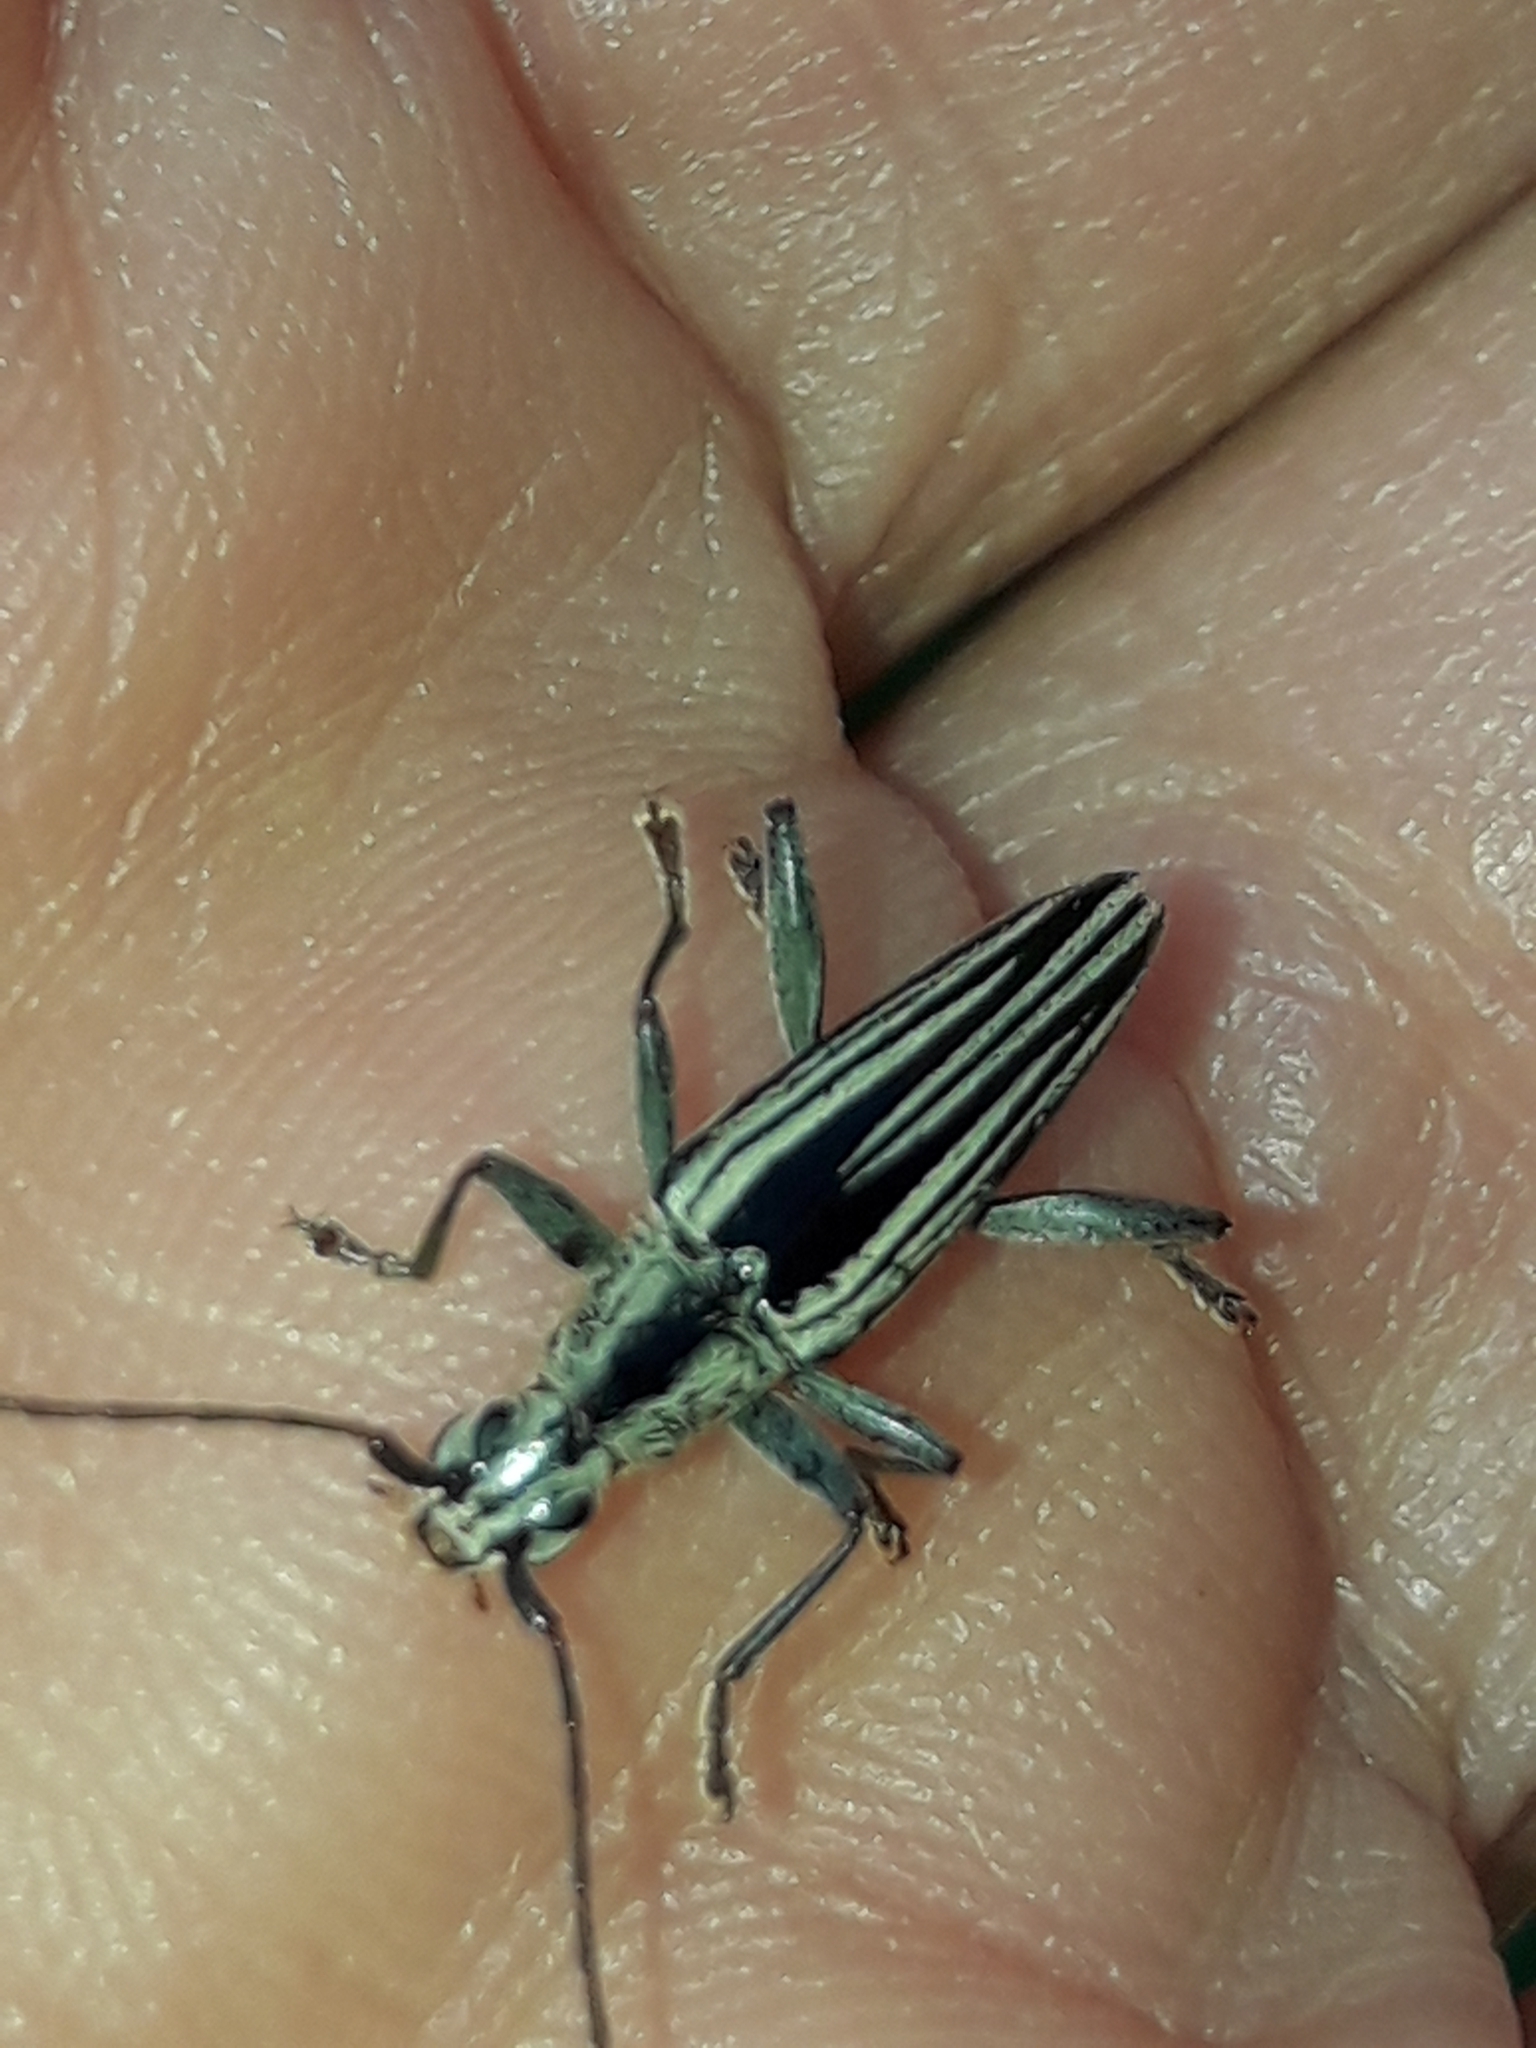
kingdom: Animalia
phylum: Arthropoda
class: Insecta
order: Coleoptera
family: Cerambycidae
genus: Coptomma
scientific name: Coptomma sulcatum
